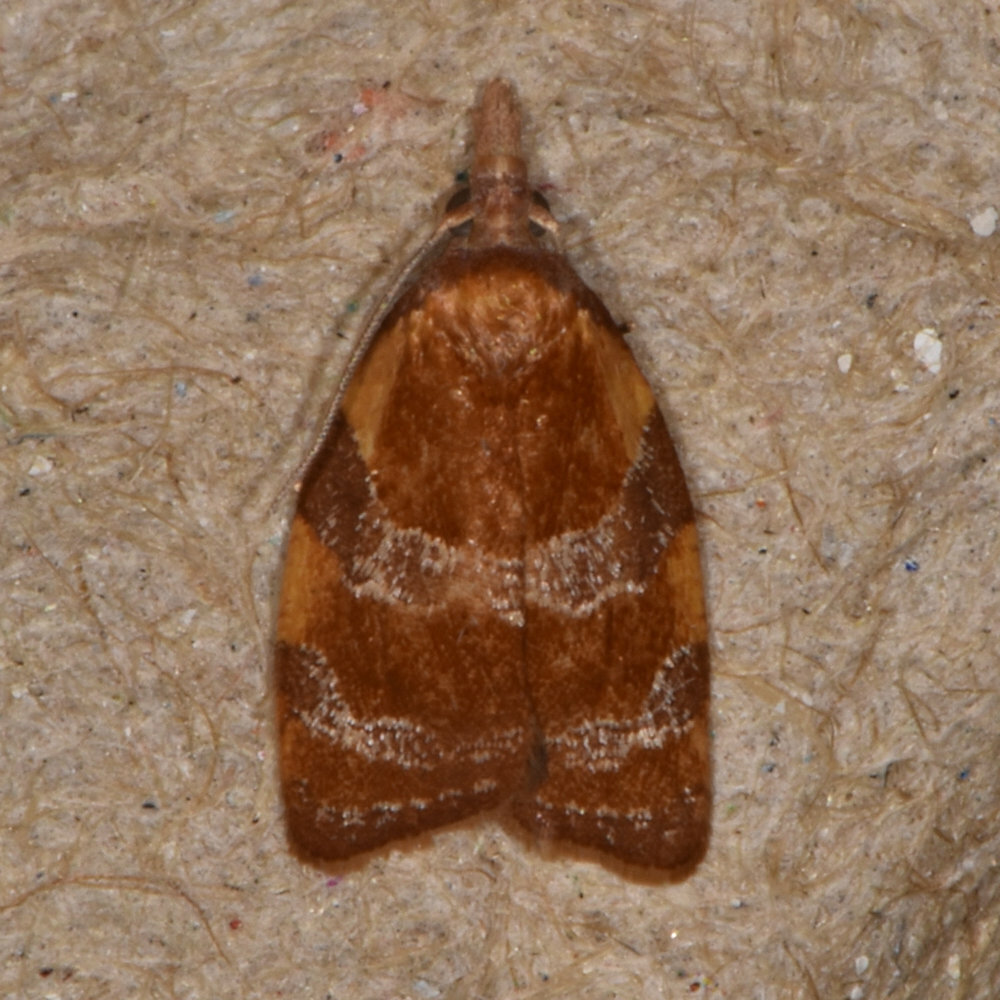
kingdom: Animalia
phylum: Arthropoda
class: Insecta
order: Lepidoptera
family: Tortricidae
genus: Cenopis
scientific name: Cenopis diluticostana
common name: Spring dead-leaf roller moth
